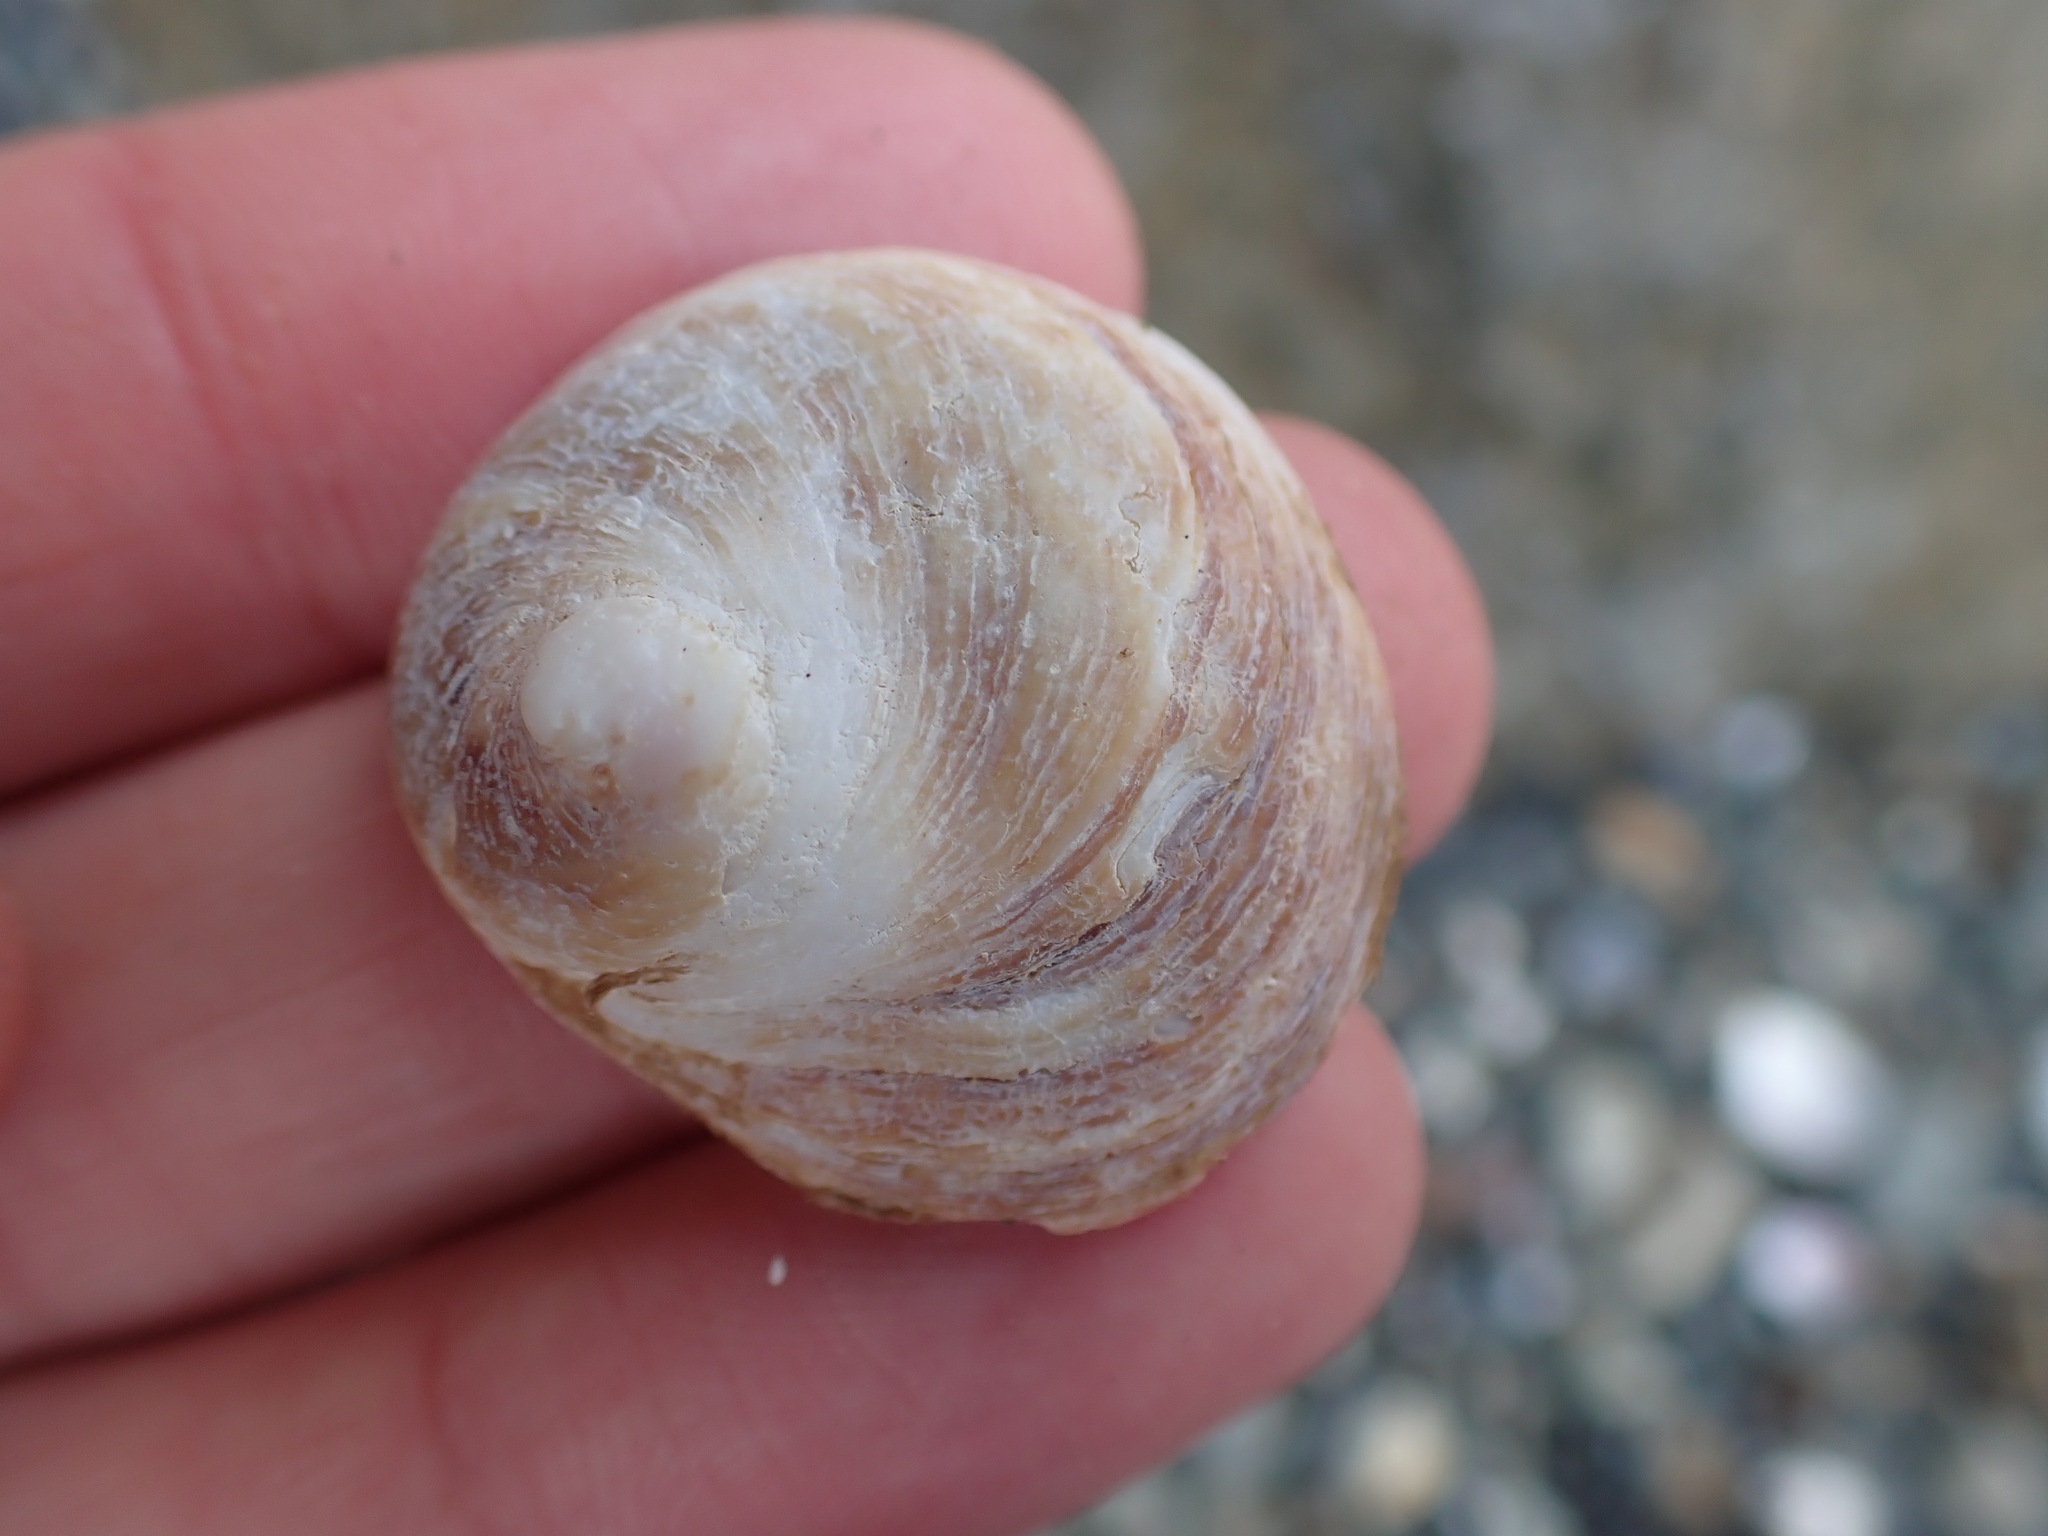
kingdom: Animalia
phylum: Mollusca
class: Gastropoda
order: Littorinimorpha
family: Calyptraeidae
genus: Sigapatella
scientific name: Sigapatella novaezelandiae
